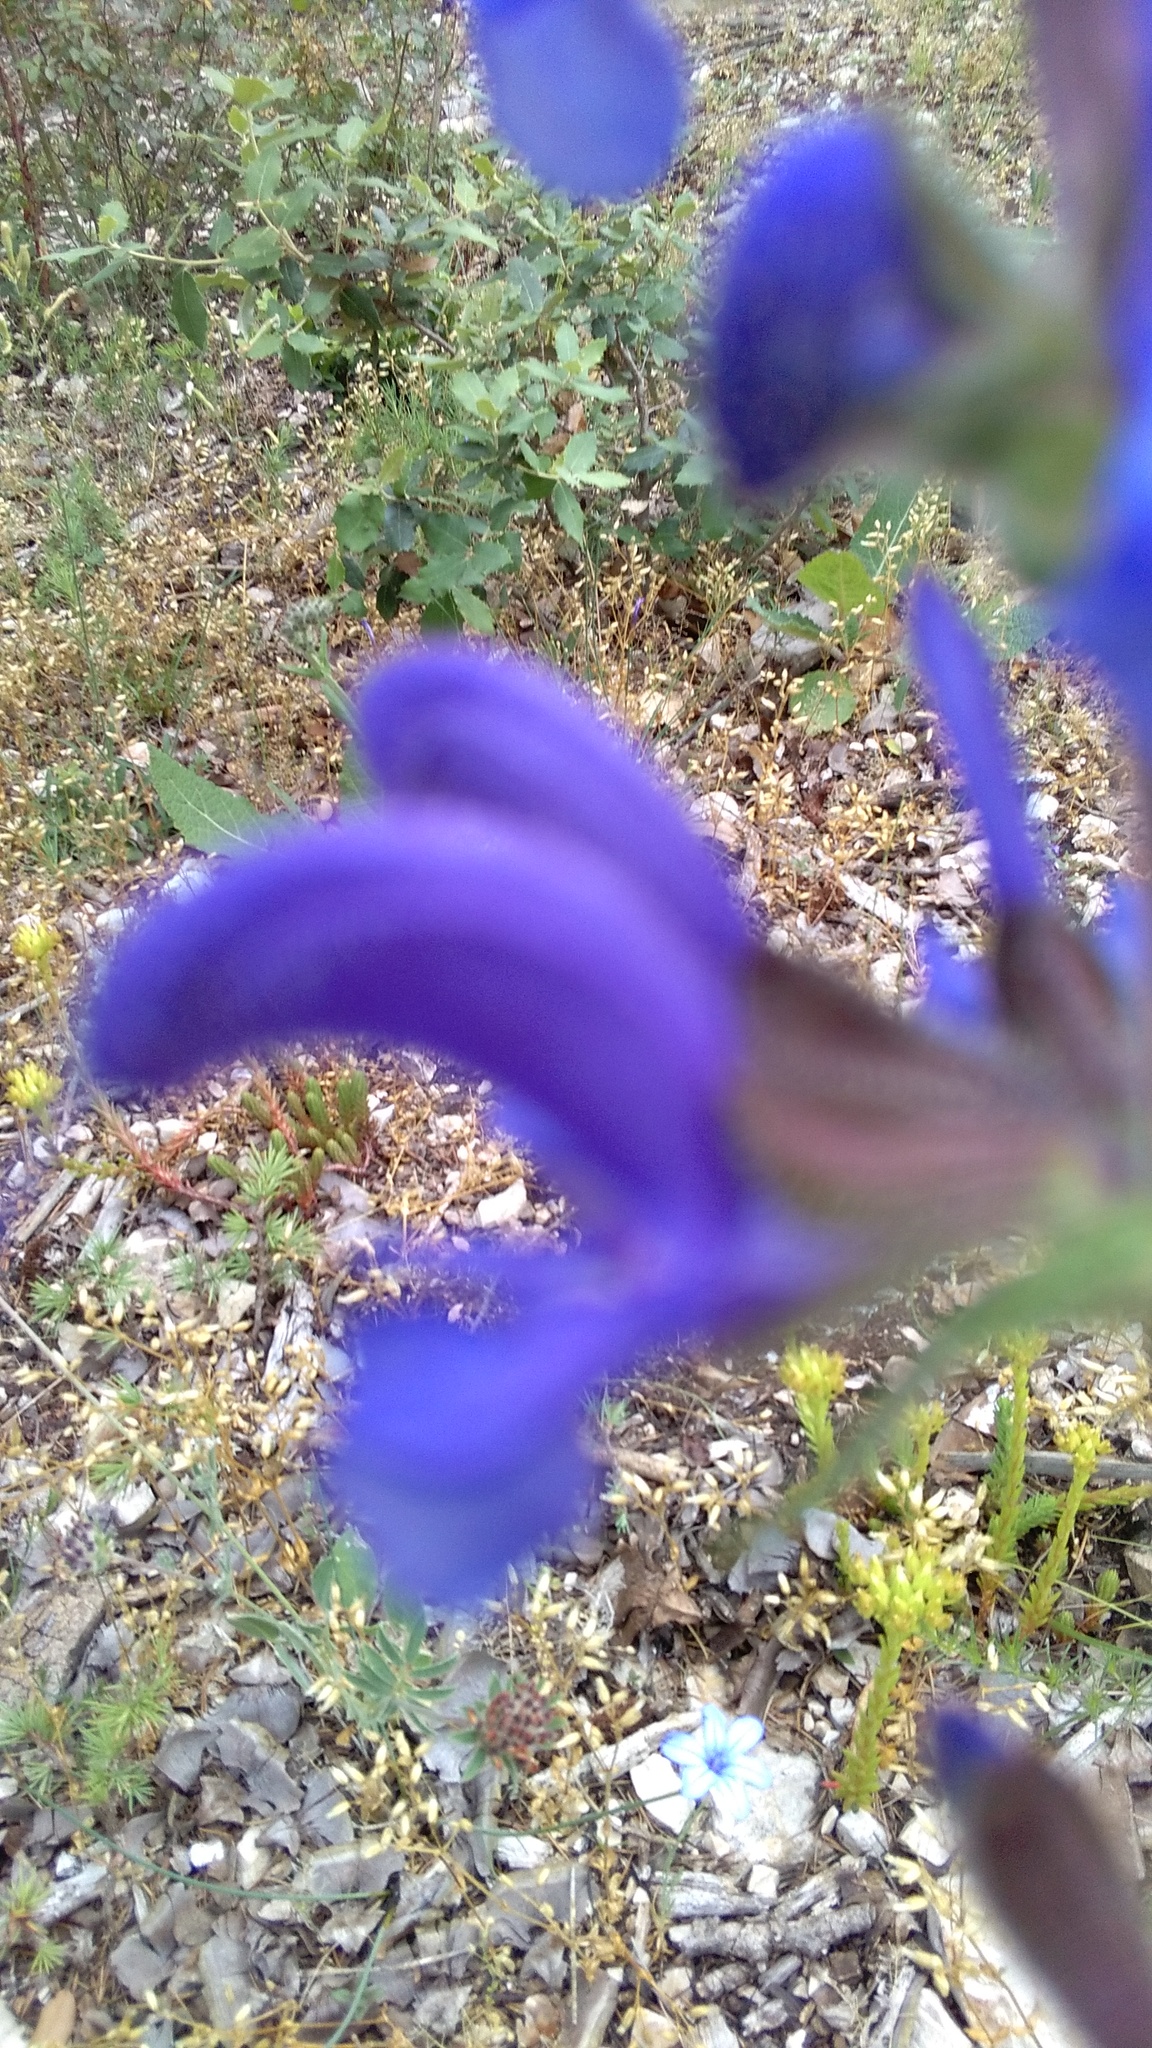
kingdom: Plantae
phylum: Tracheophyta
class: Magnoliopsida
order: Lamiales
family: Lamiaceae
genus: Salvia
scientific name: Salvia pratensis
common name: Meadow sage
